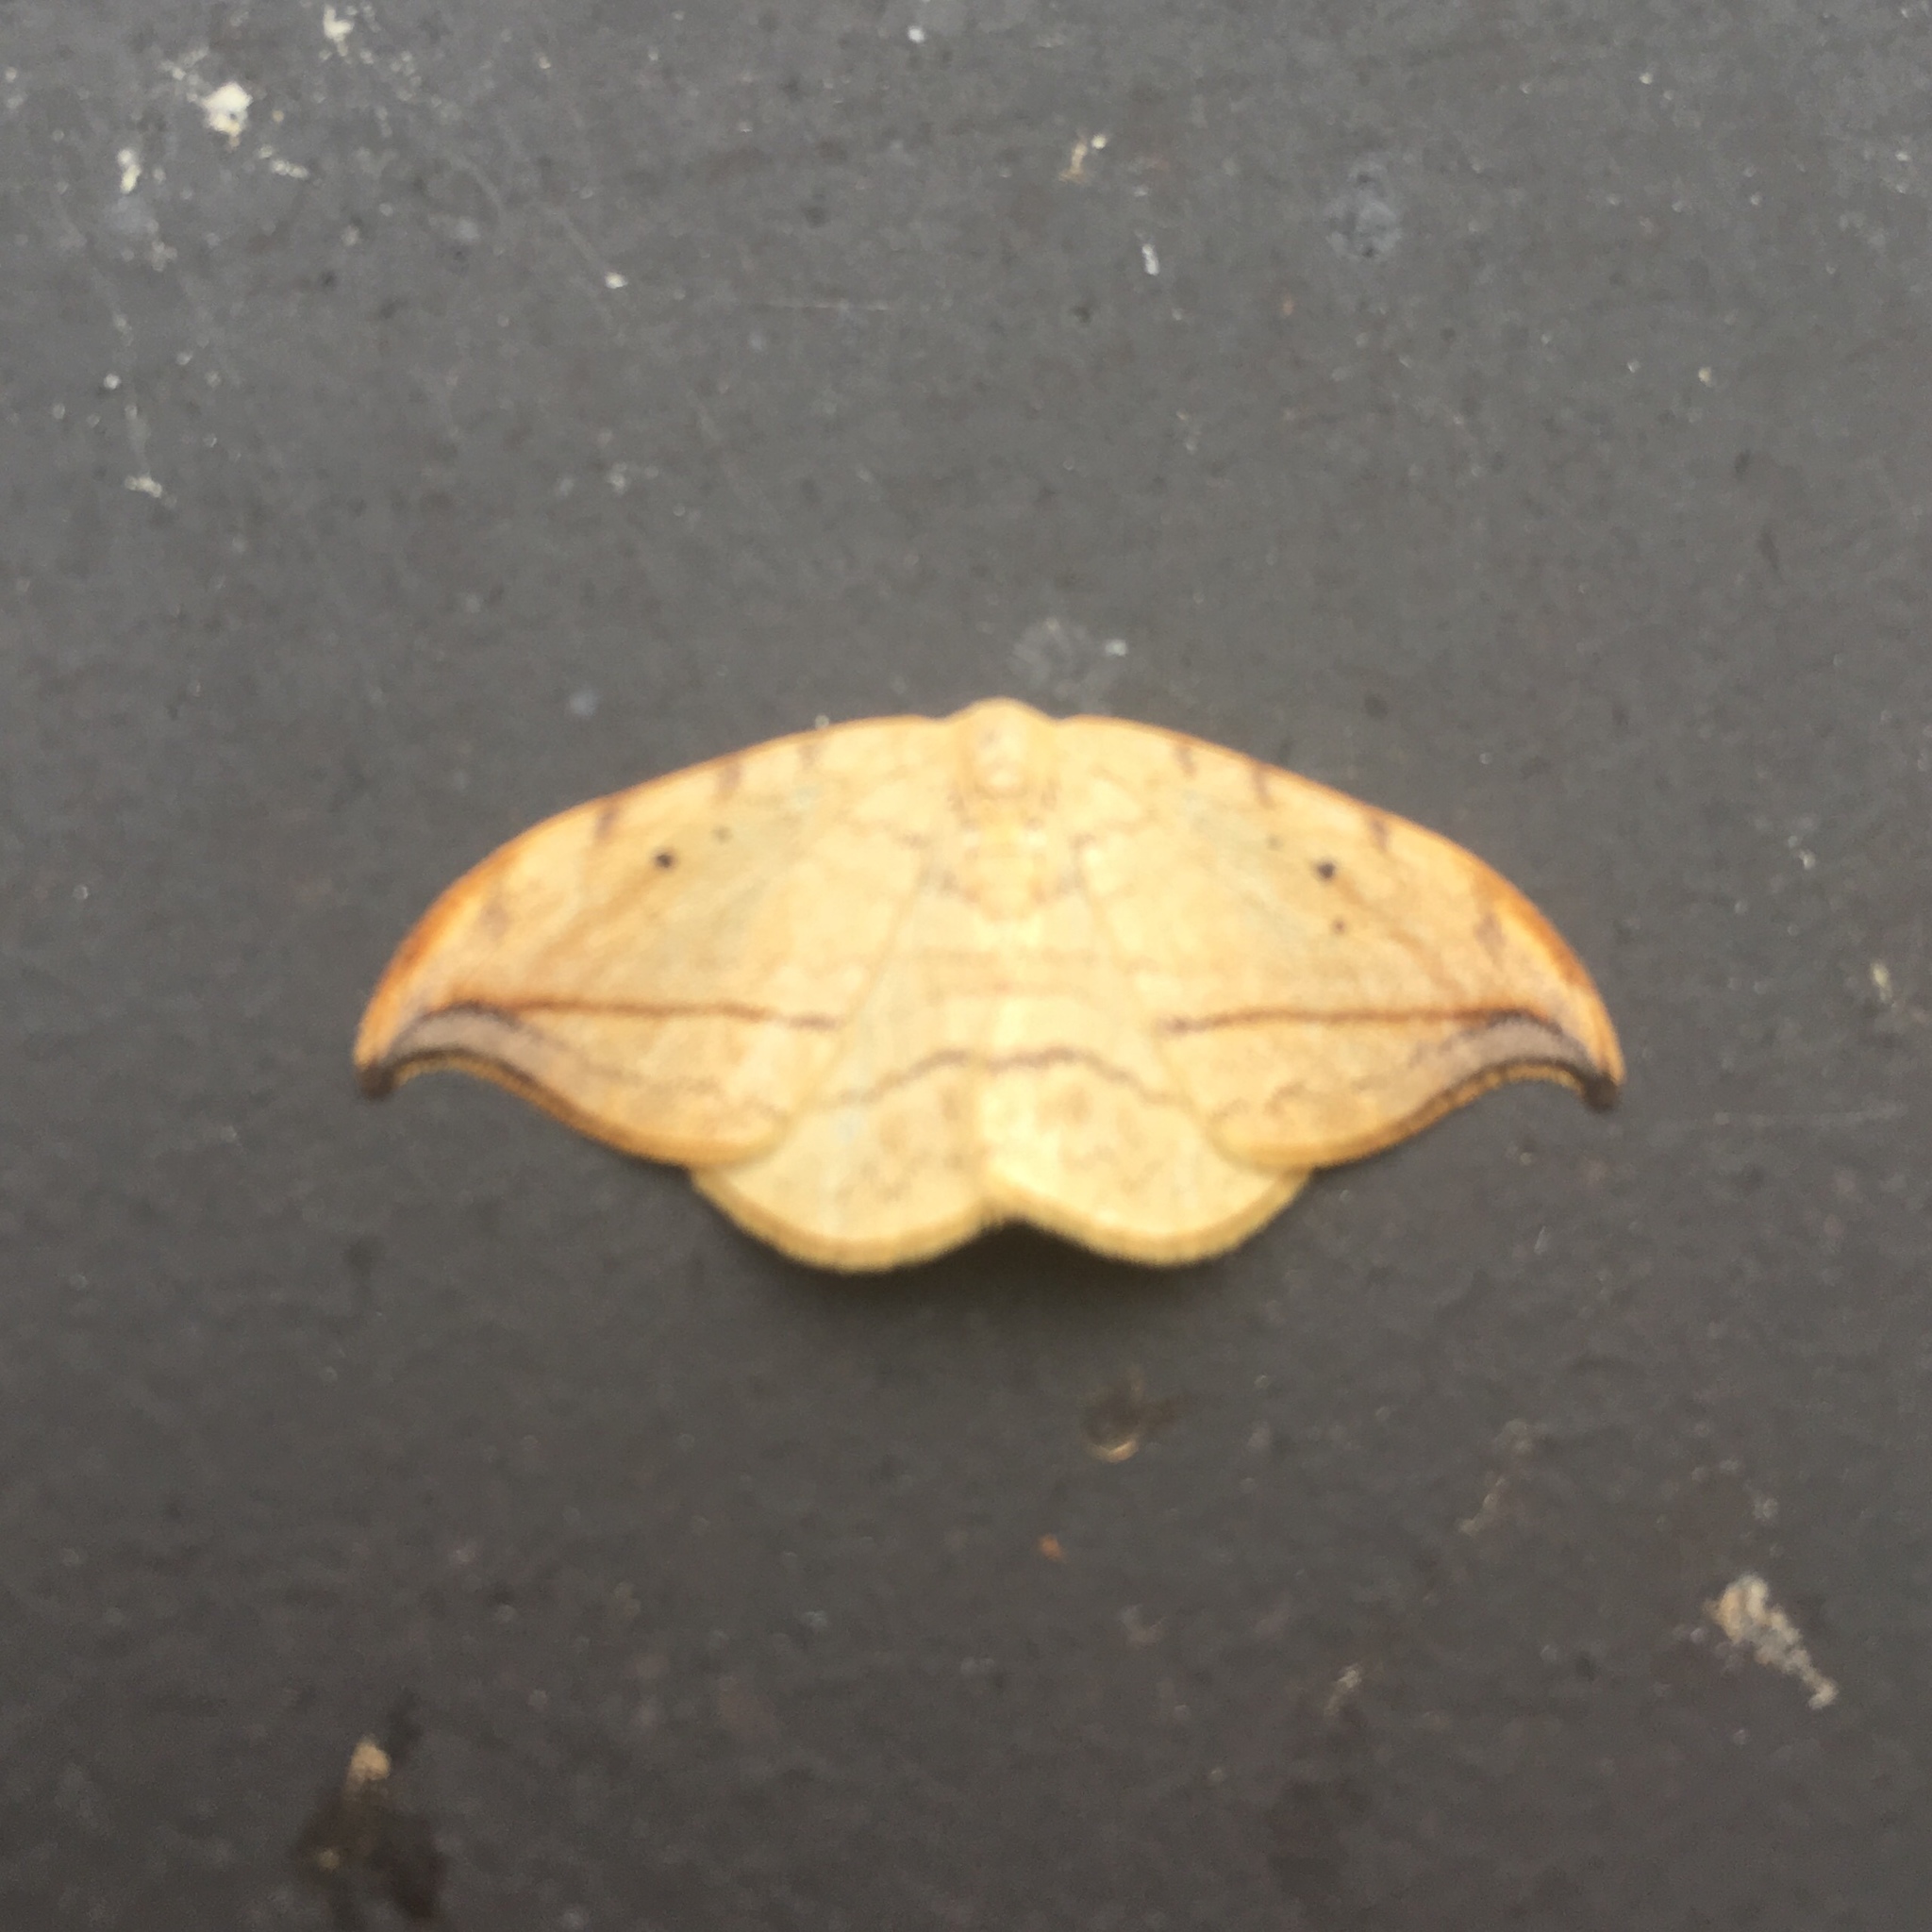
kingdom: Animalia
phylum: Arthropoda
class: Insecta
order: Lepidoptera
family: Drepanidae
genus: Drepana
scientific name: Drepana arcuata
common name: Arched hooktip moth
